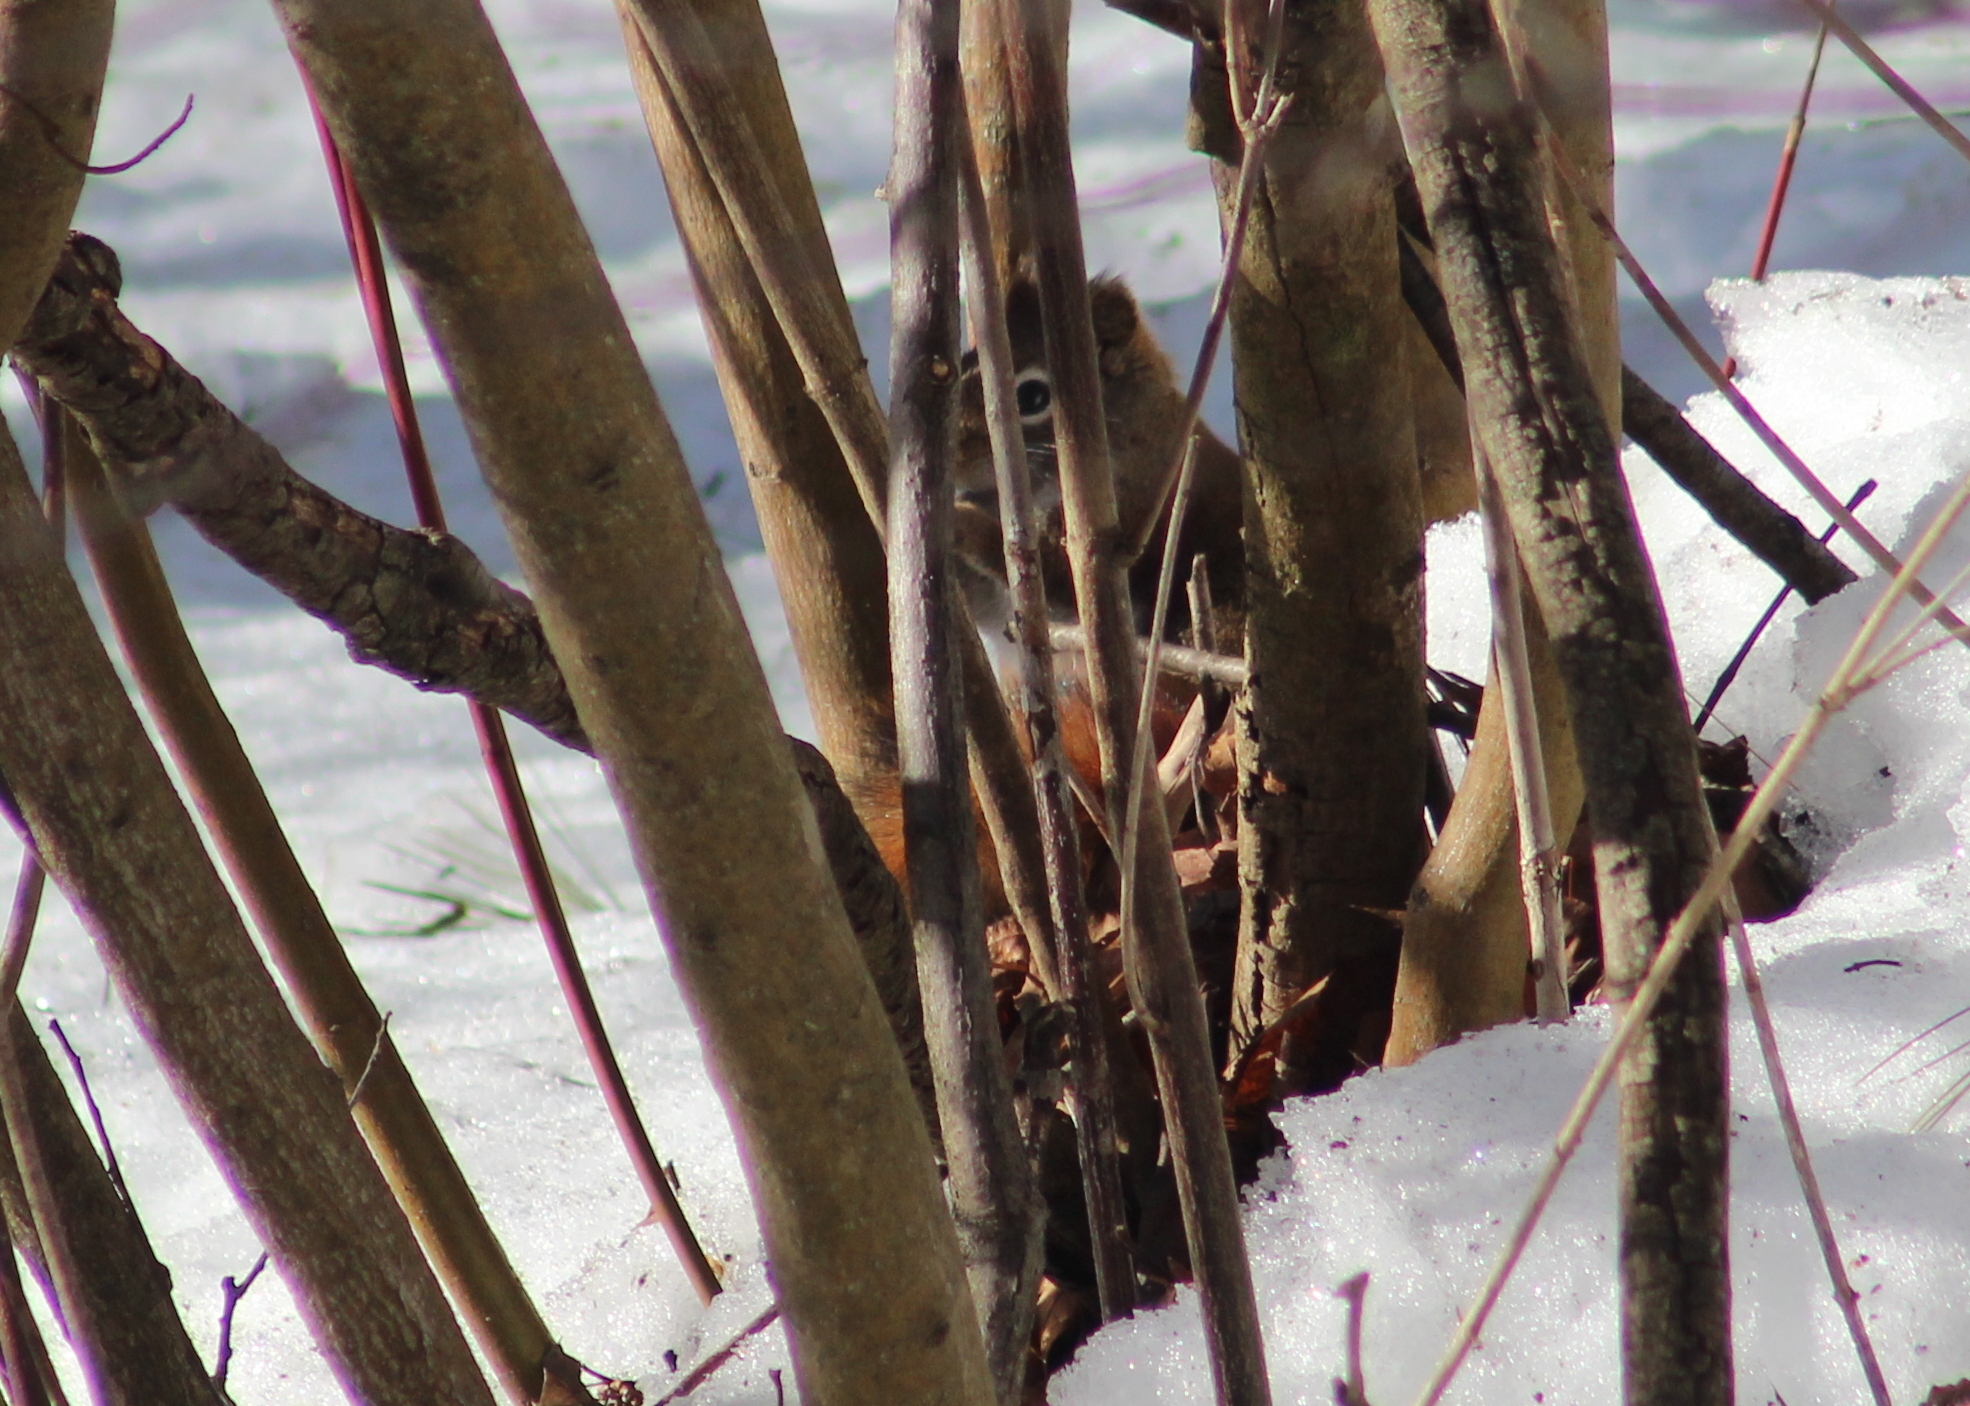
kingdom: Animalia
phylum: Chordata
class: Mammalia
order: Rodentia
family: Sciuridae
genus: Tamiasciurus
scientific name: Tamiasciurus hudsonicus
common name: Red squirrel
